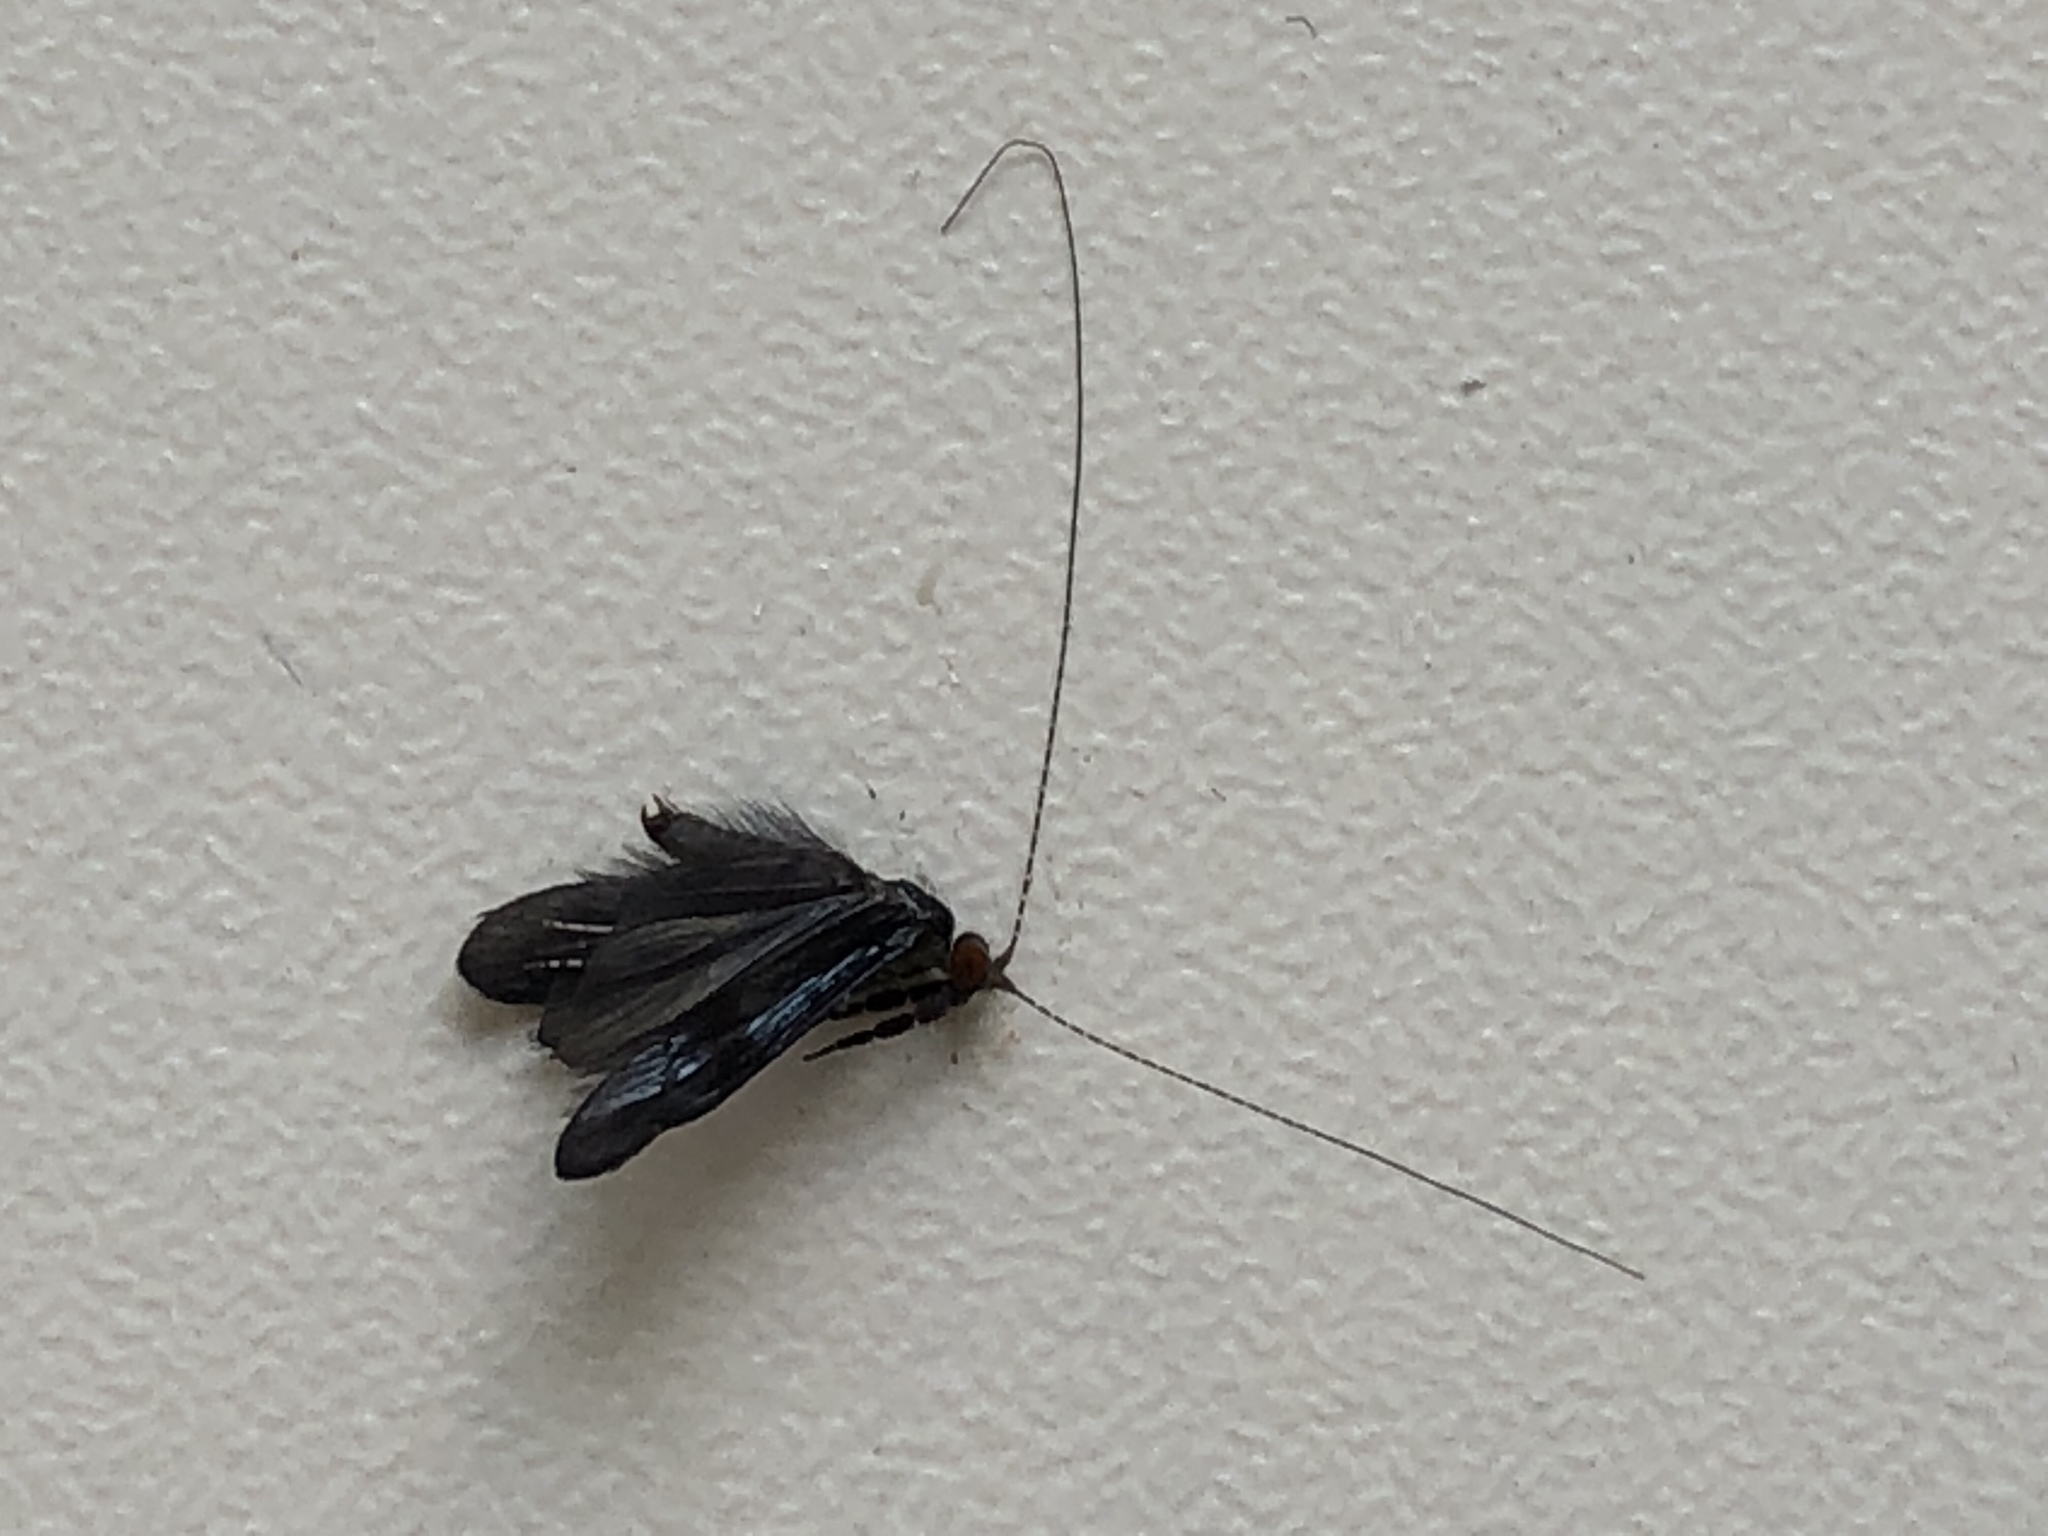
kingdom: Animalia
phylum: Arthropoda
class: Insecta
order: Lepidoptera
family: Adelidae
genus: Adela
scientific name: Adela viridella
